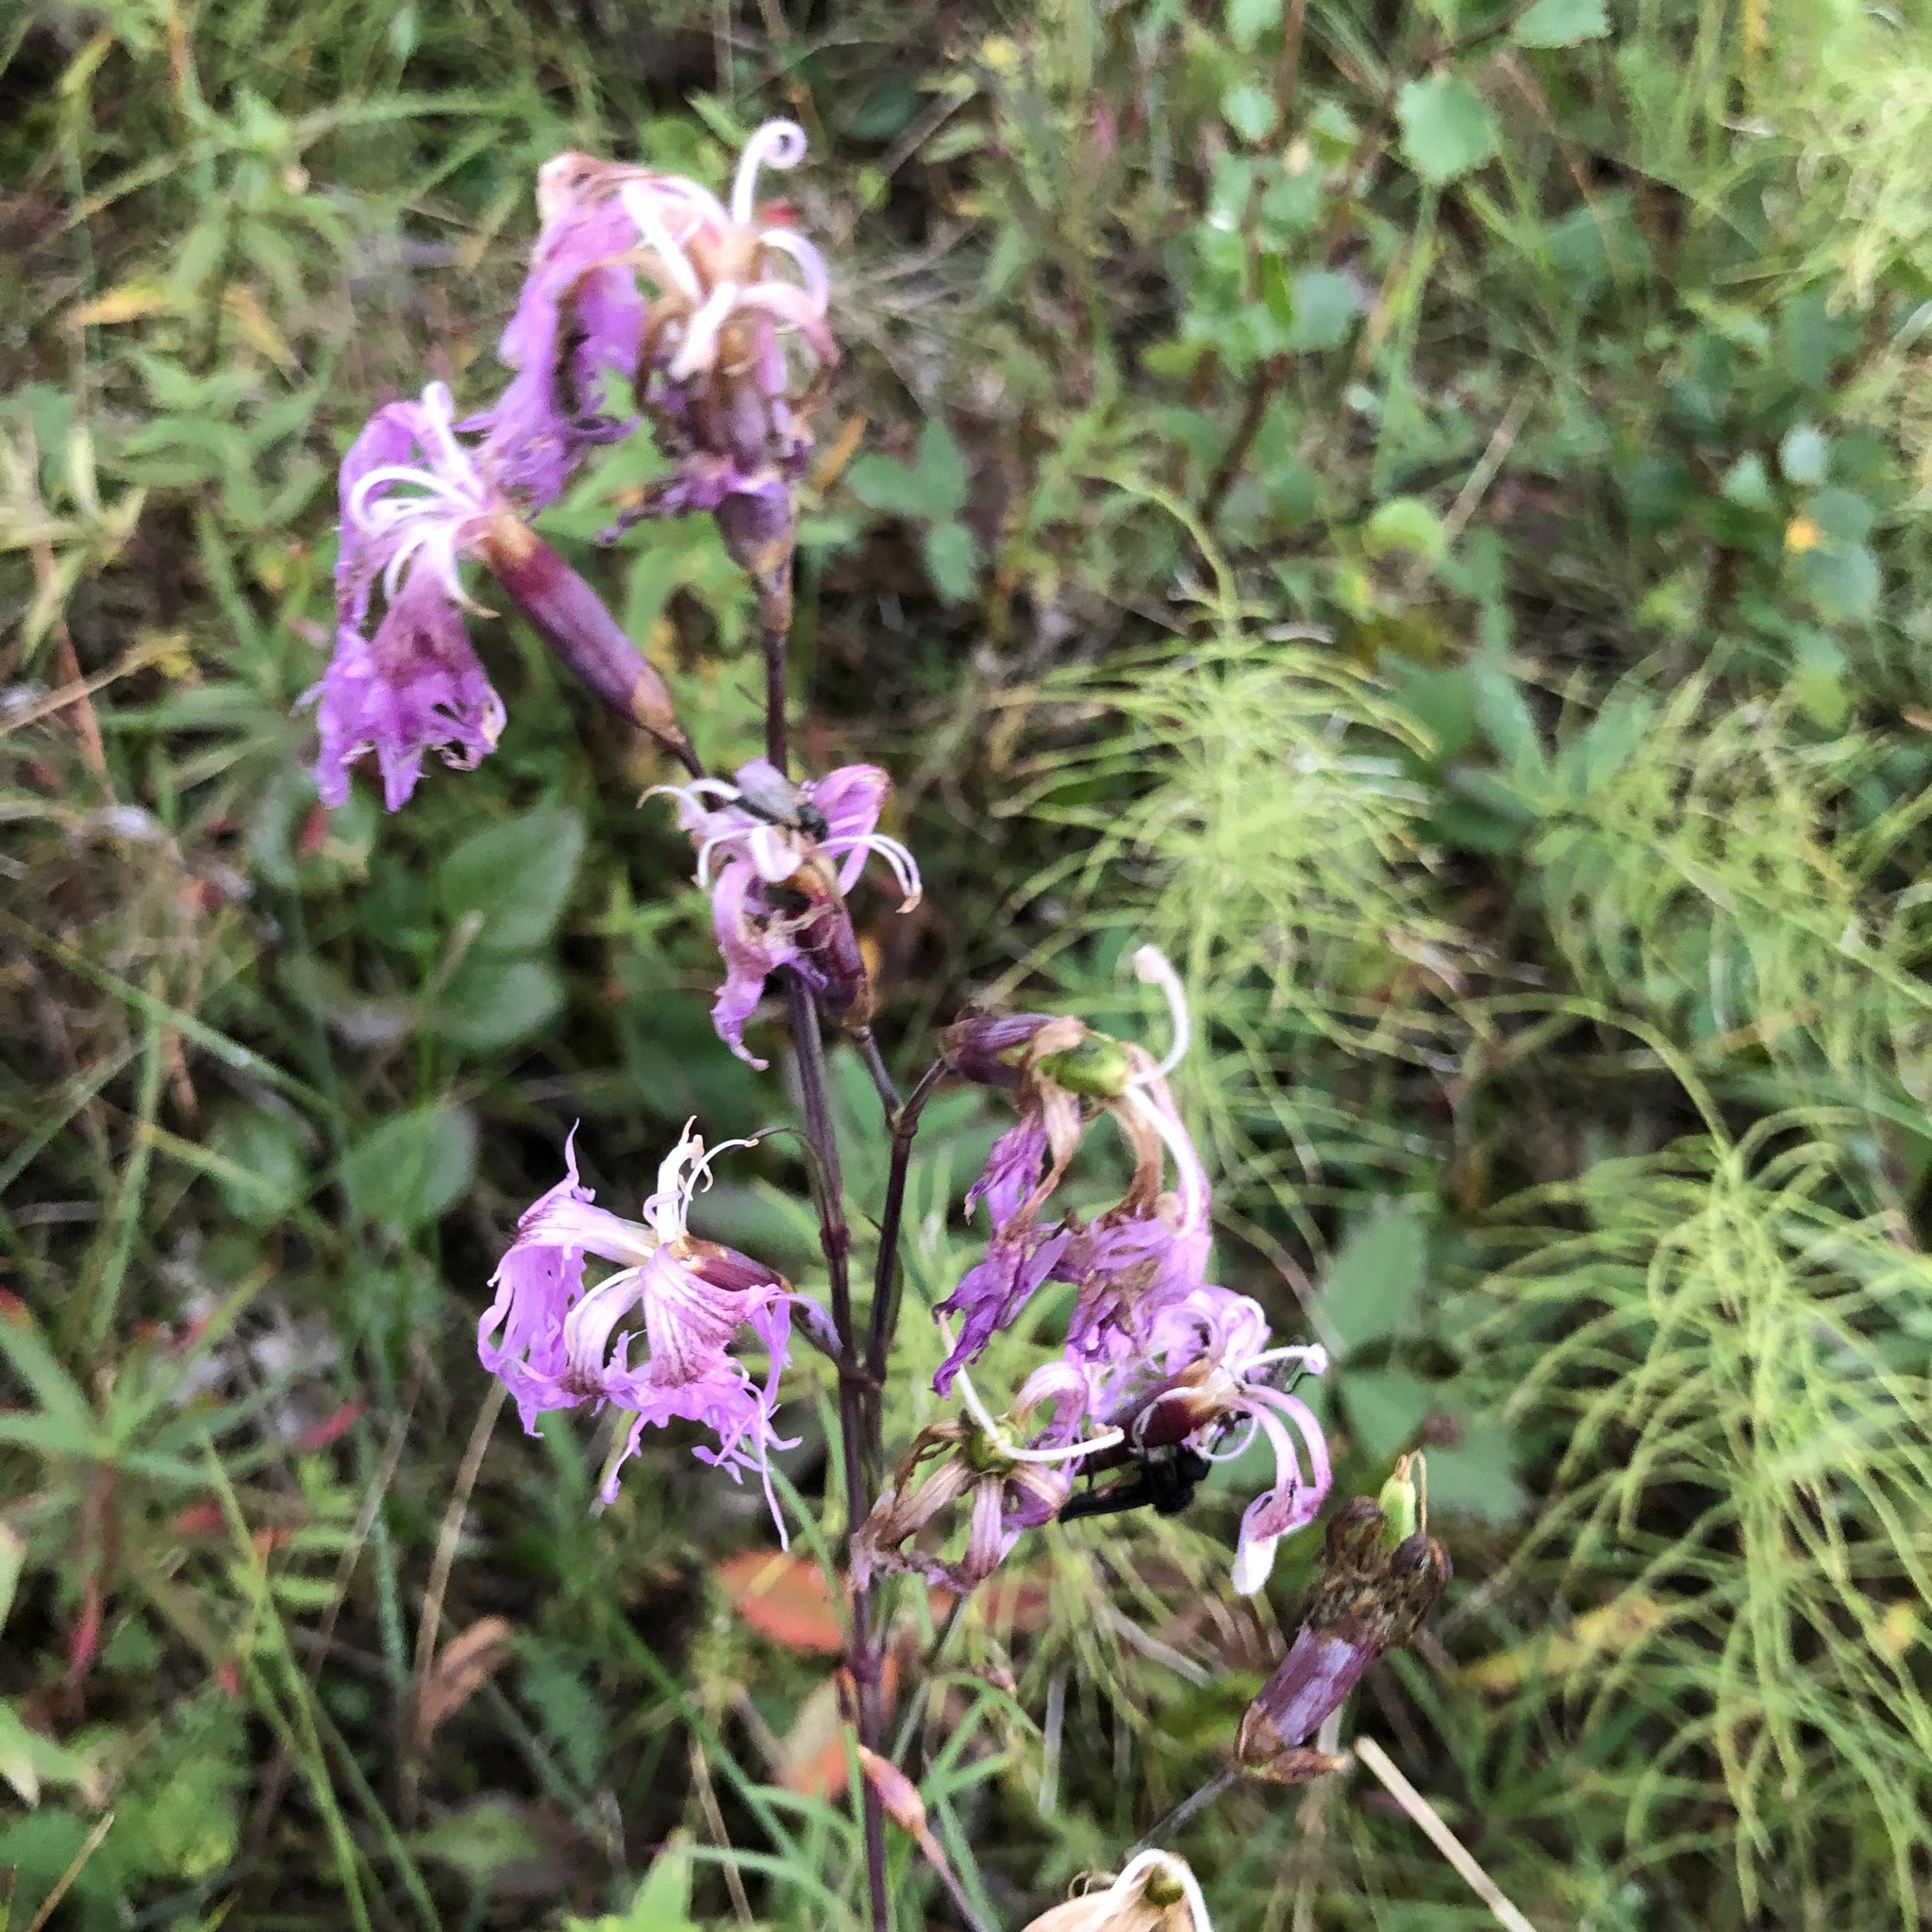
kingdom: Plantae
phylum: Tracheophyta
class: Magnoliopsida
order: Caryophyllales
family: Caryophyllaceae
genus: Dianthus
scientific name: Dianthus superbus
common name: Fringed pink
